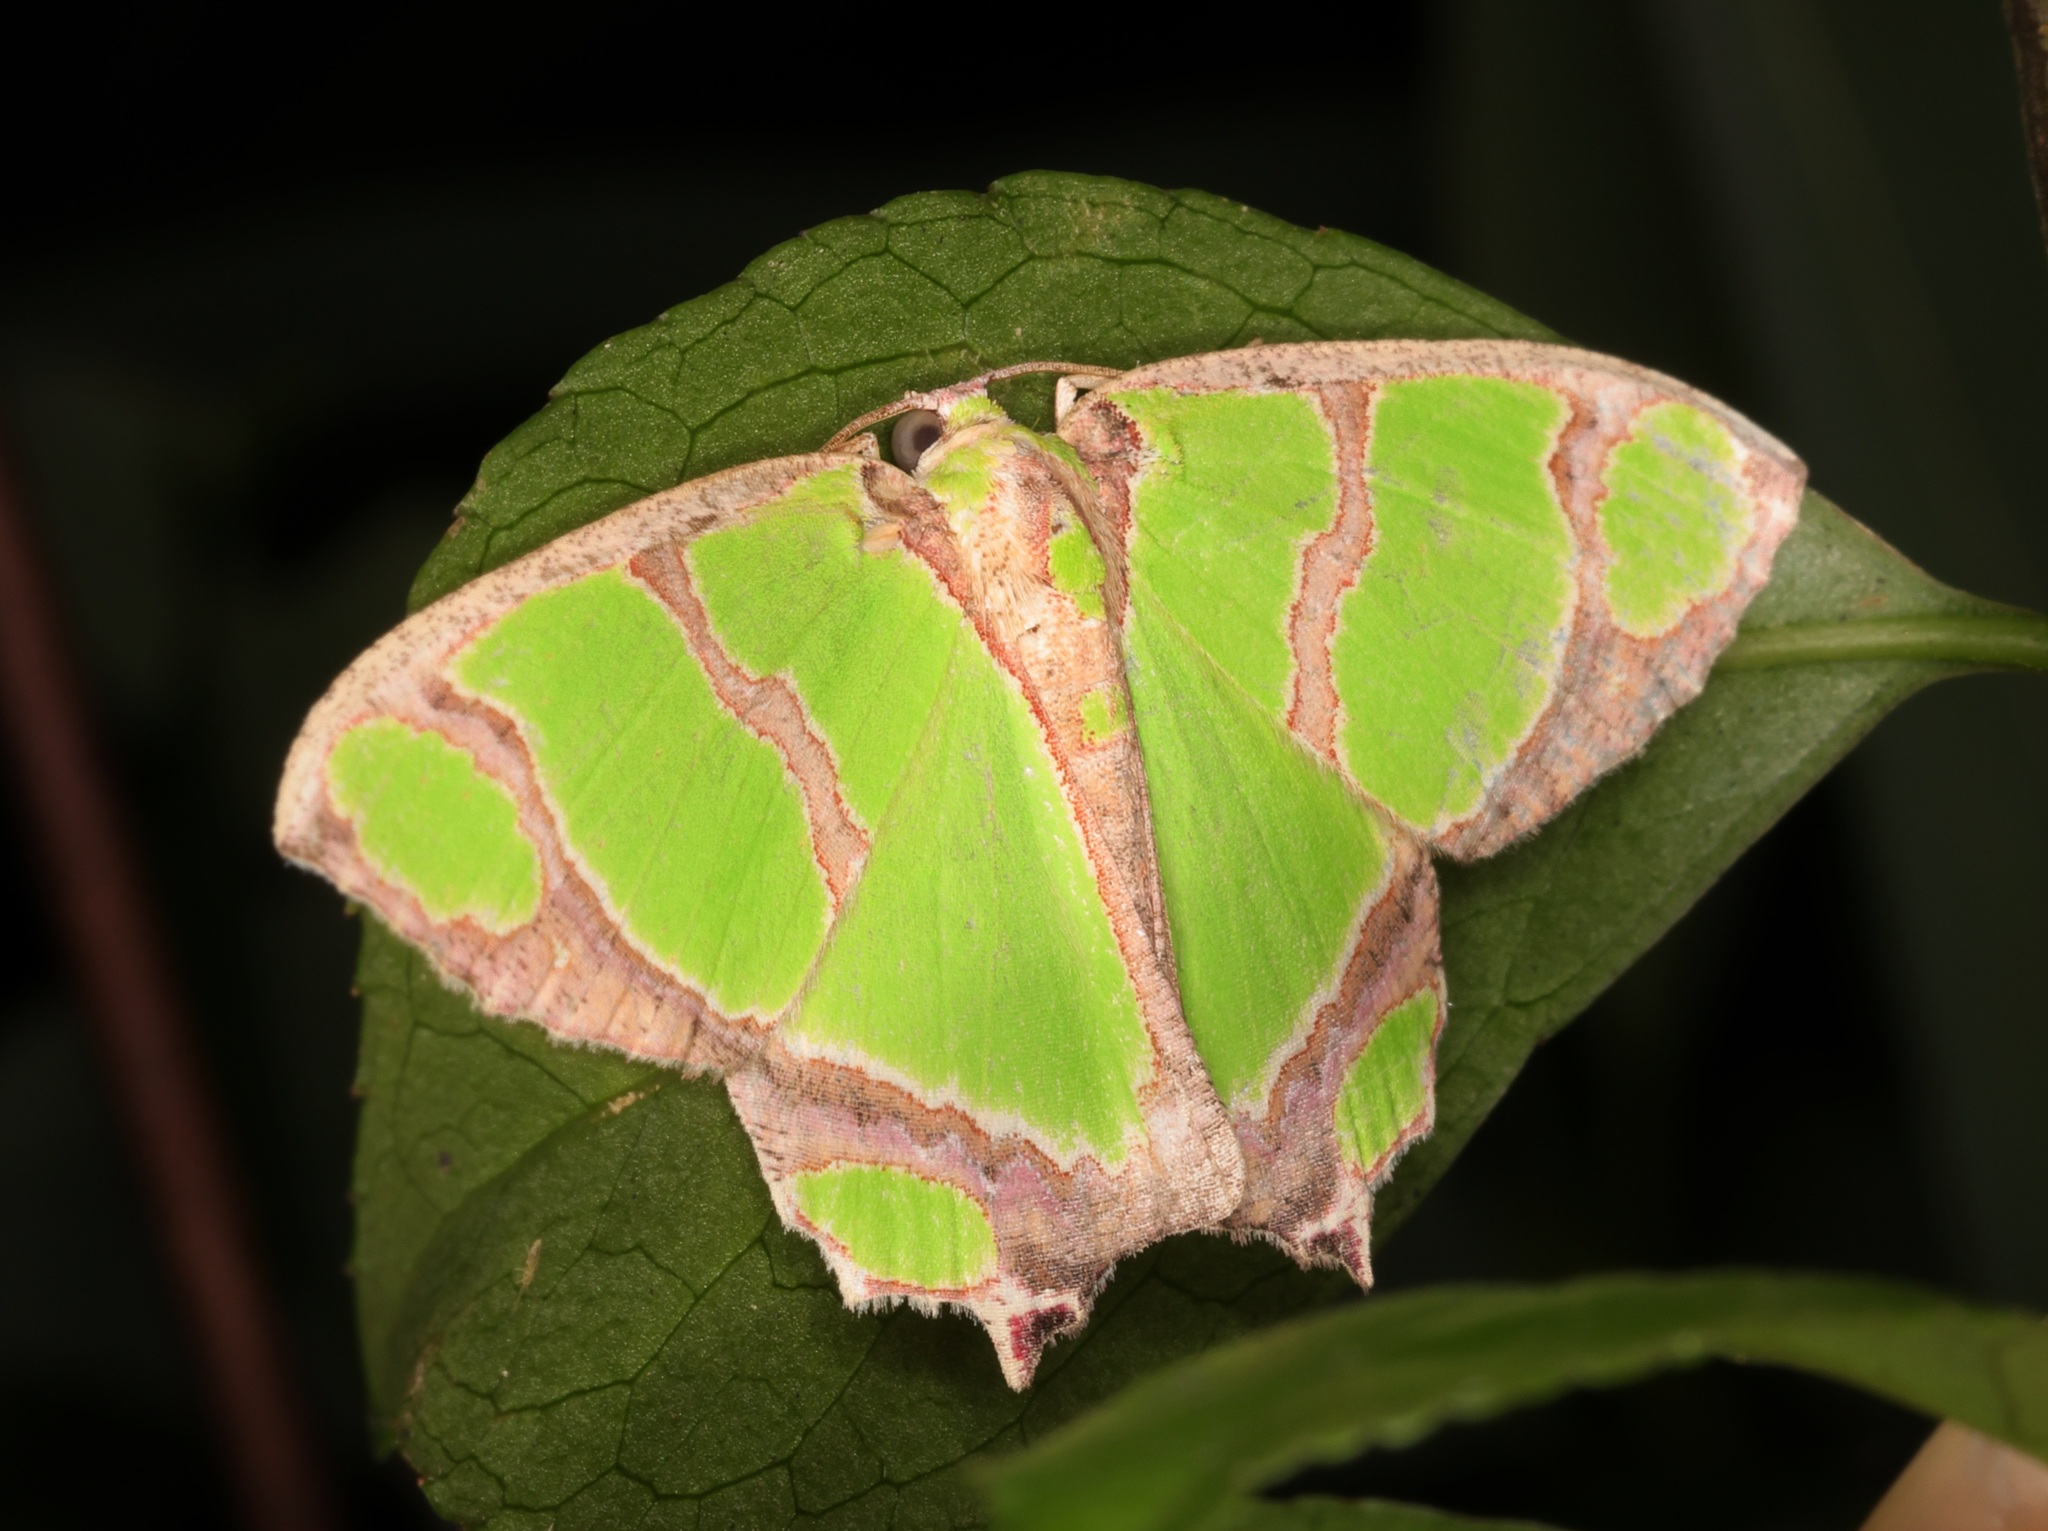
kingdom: Animalia
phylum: Arthropoda
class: Insecta
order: Lepidoptera
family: Geometridae
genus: Agathia
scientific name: Agathia carissima
